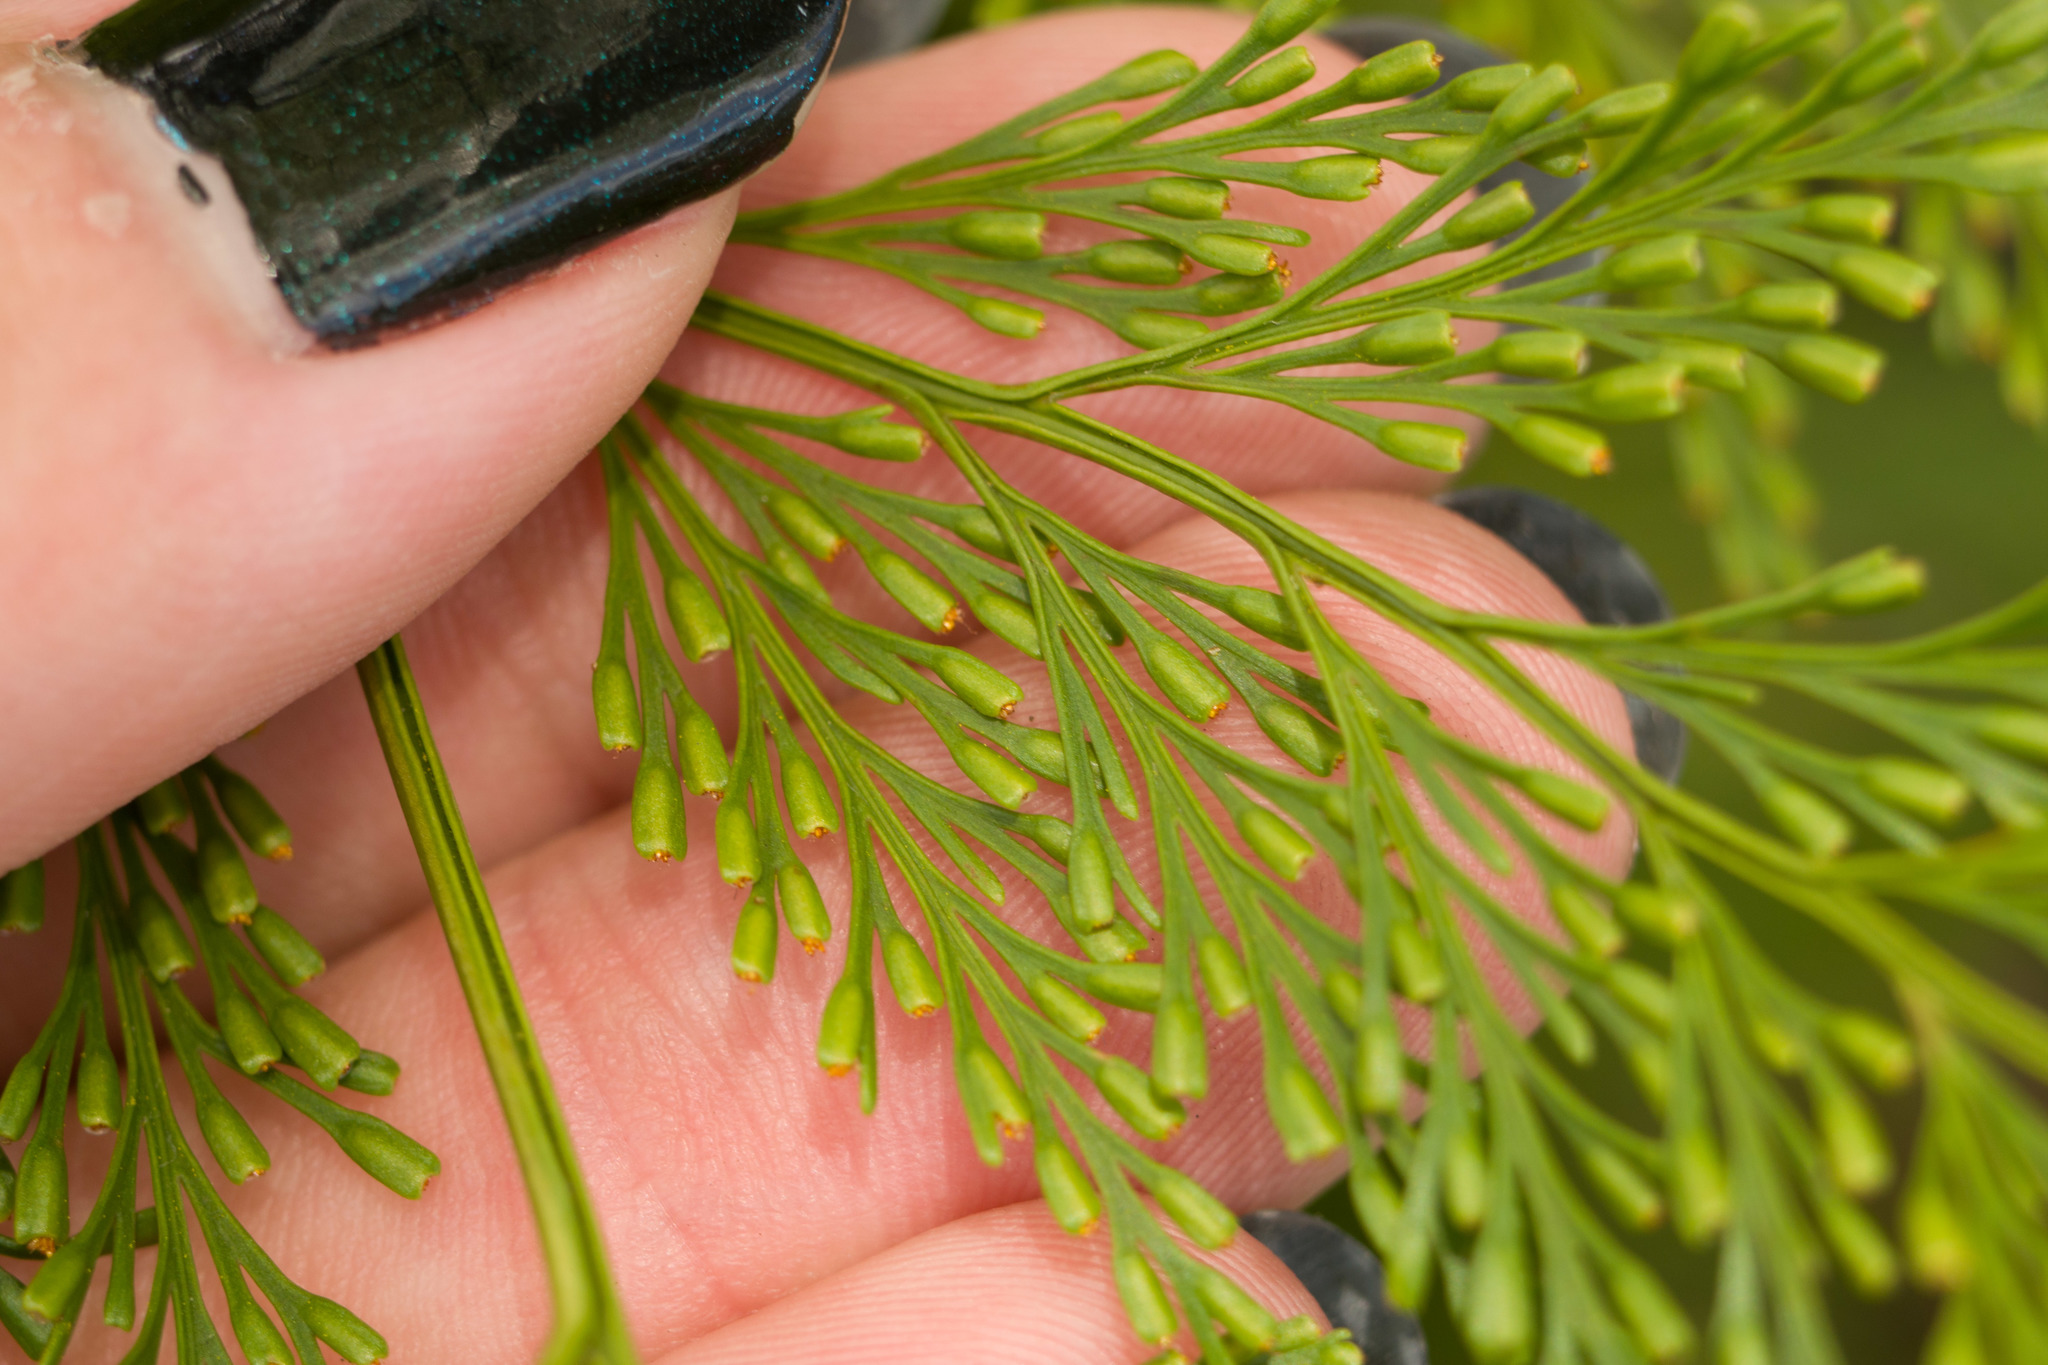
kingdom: Plantae
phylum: Tracheophyta
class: Polypodiopsida
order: Polypodiales
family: Davalliaceae
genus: Davallia
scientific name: Davallia fejeensis
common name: Lacy hare's-foot fern
